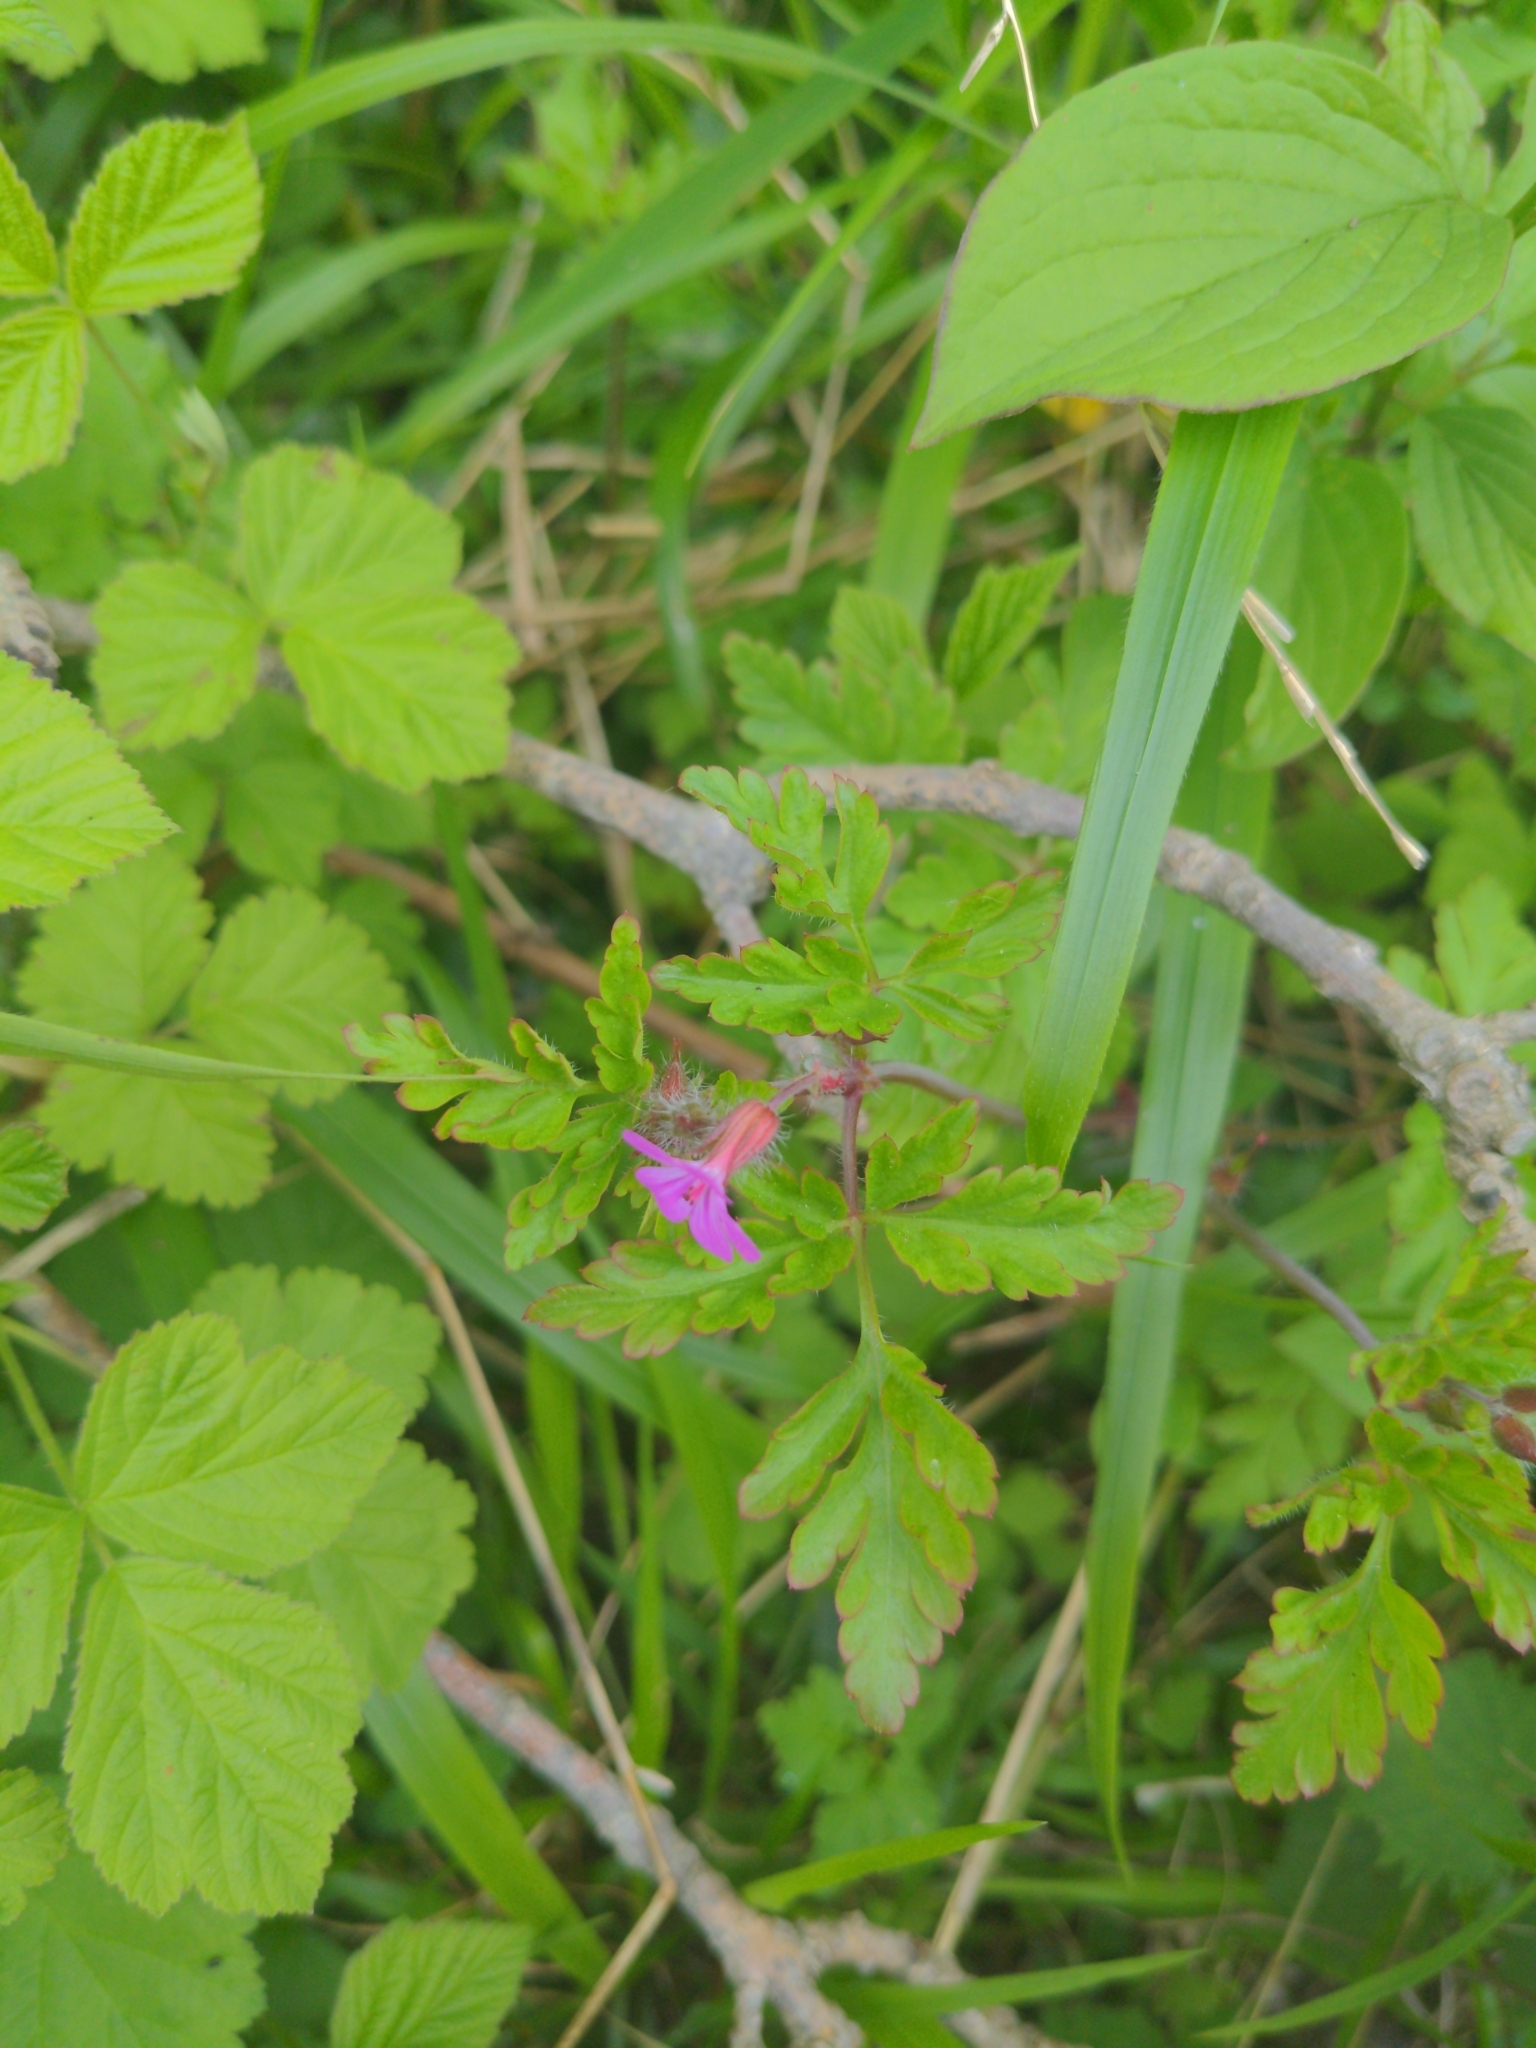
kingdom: Plantae
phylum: Tracheophyta
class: Magnoliopsida
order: Geraniales
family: Geraniaceae
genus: Geranium
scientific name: Geranium robertianum
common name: Herb-robert
